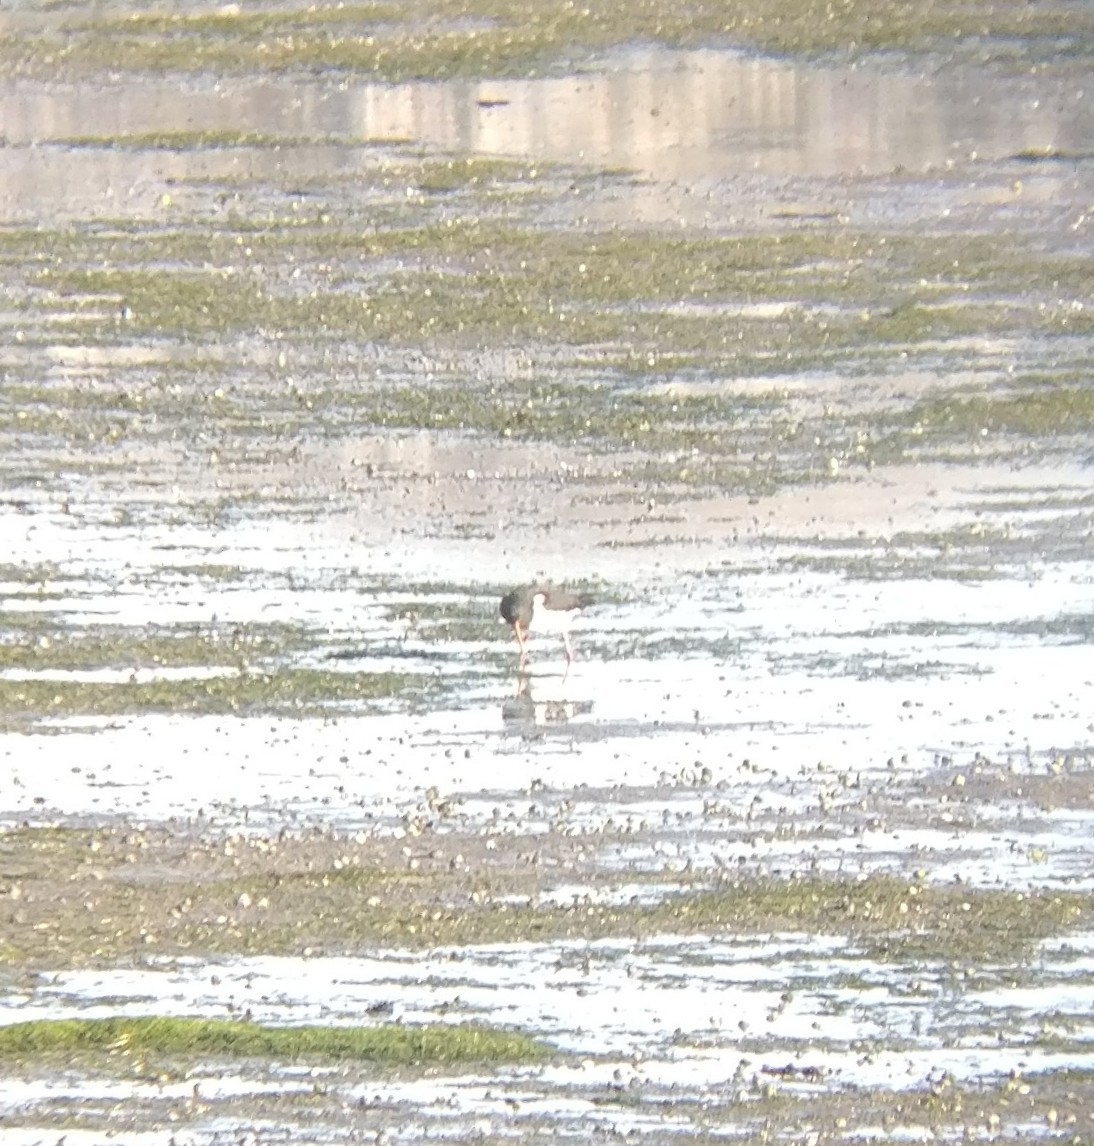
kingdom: Animalia
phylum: Chordata
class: Aves
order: Charadriiformes
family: Haematopodidae
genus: Haematopus
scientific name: Haematopus finschi
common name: South island oystercatcher
